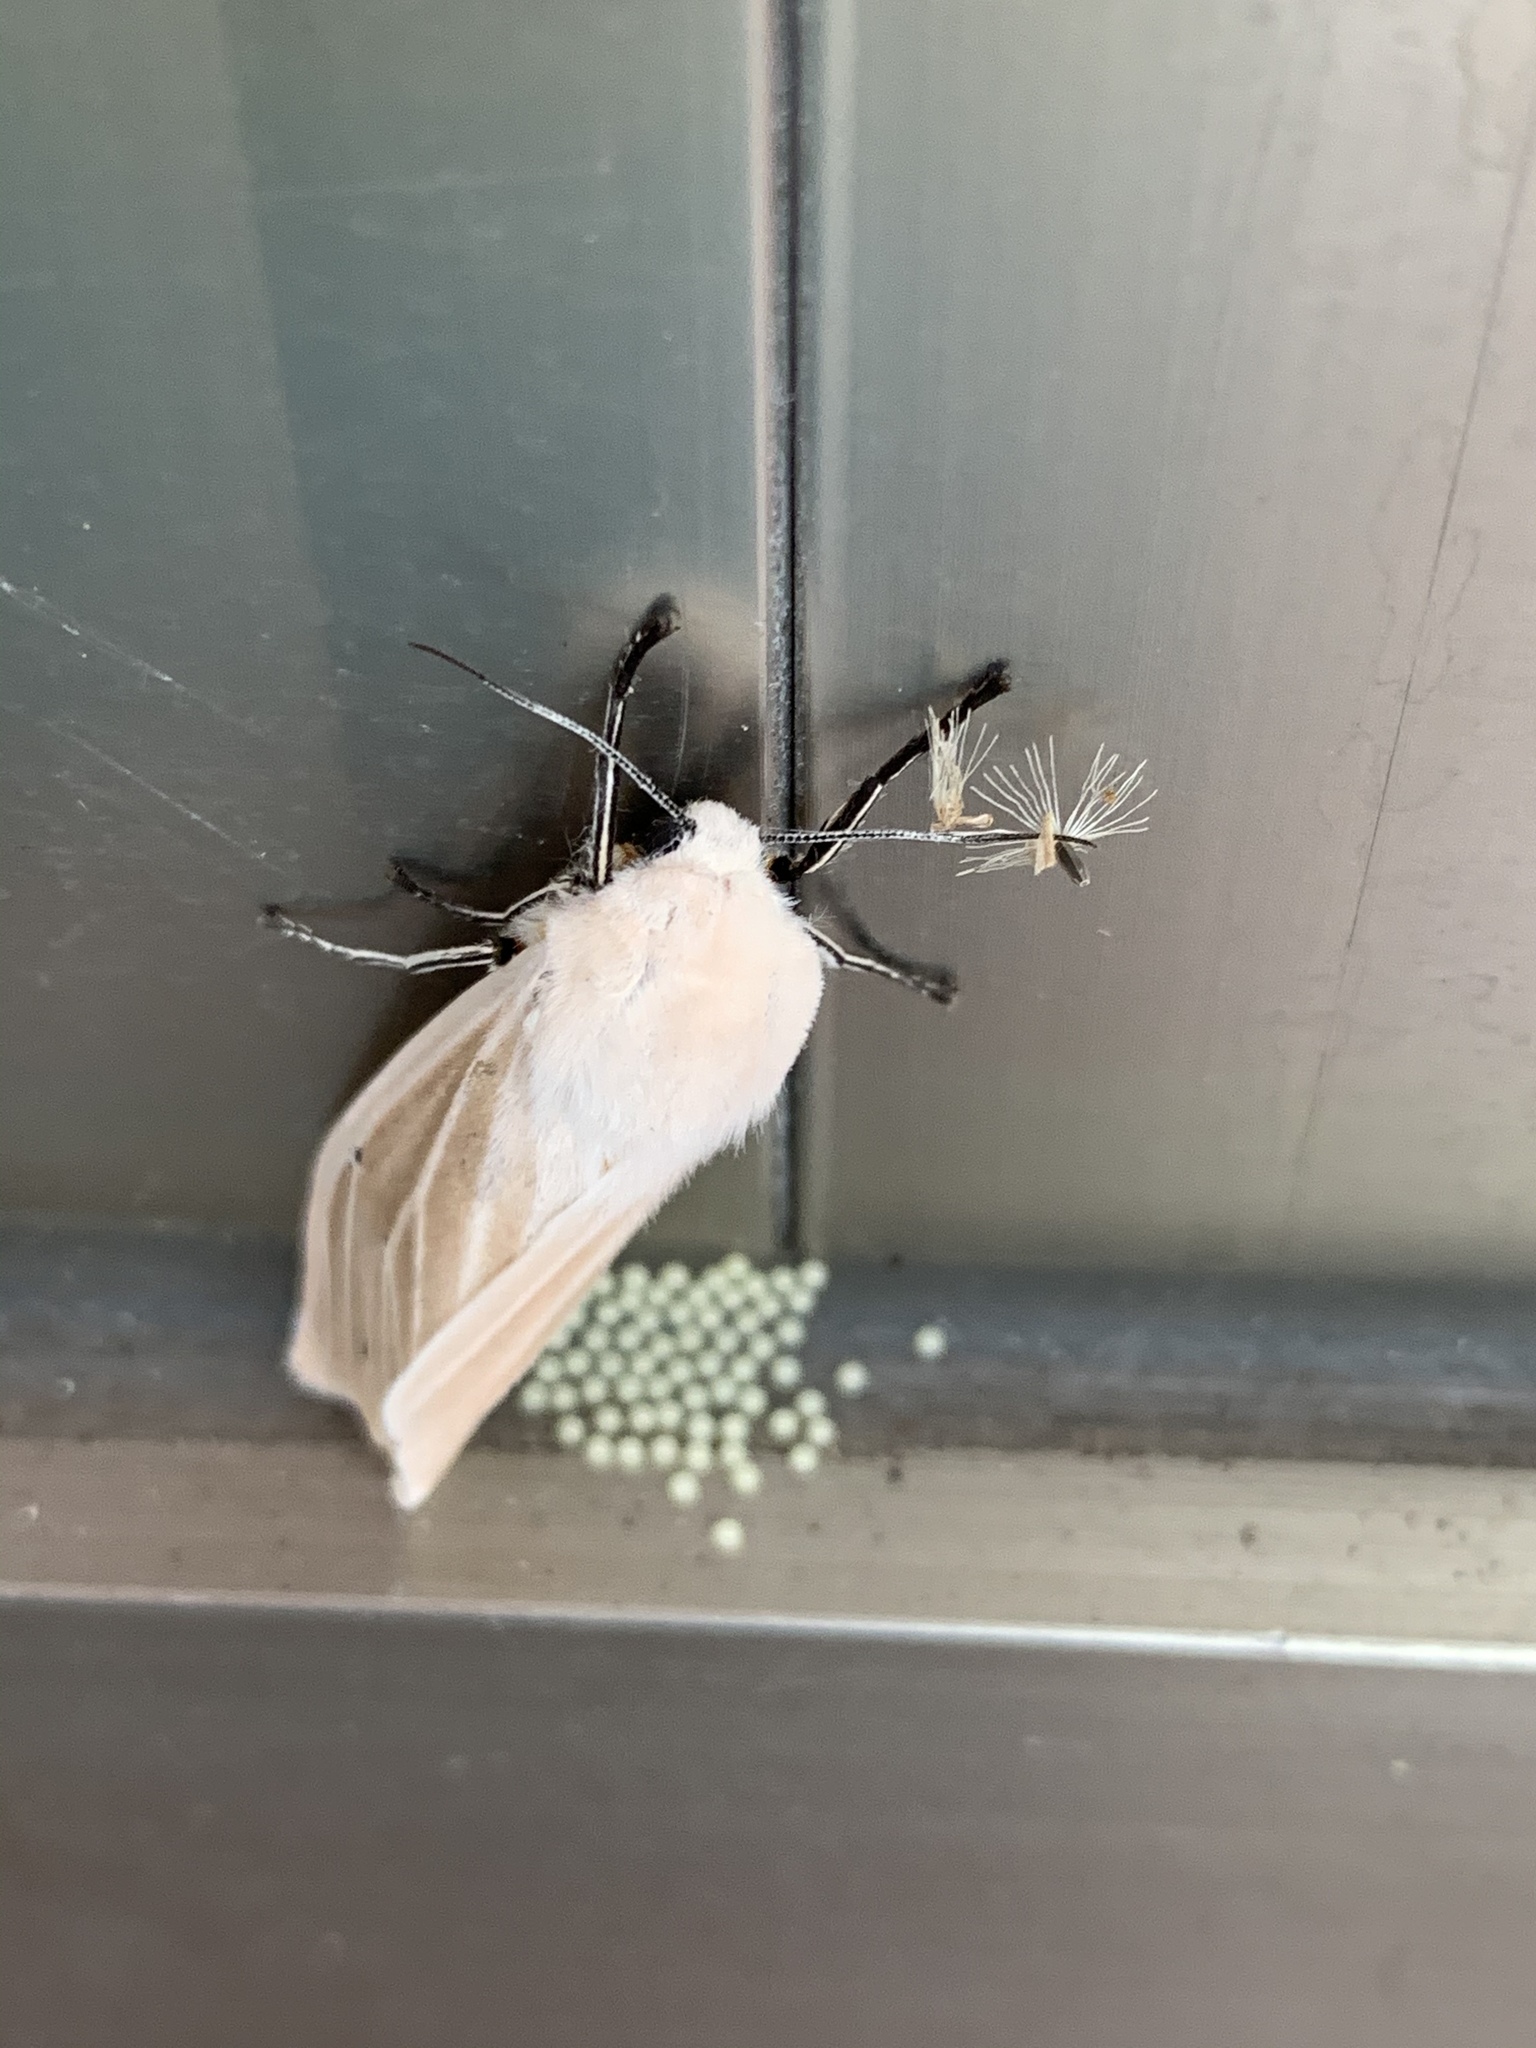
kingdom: Animalia
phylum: Arthropoda
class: Insecta
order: Lepidoptera
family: Erebidae
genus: Creatonotos
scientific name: Creatonotos transiens
